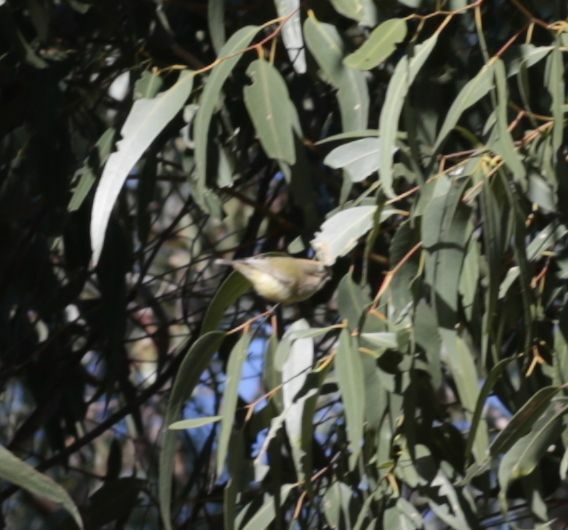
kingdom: Animalia
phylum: Chordata
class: Aves
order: Passeriformes
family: Acanthizidae
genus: Smicrornis
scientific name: Smicrornis brevirostris
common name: Weebill
